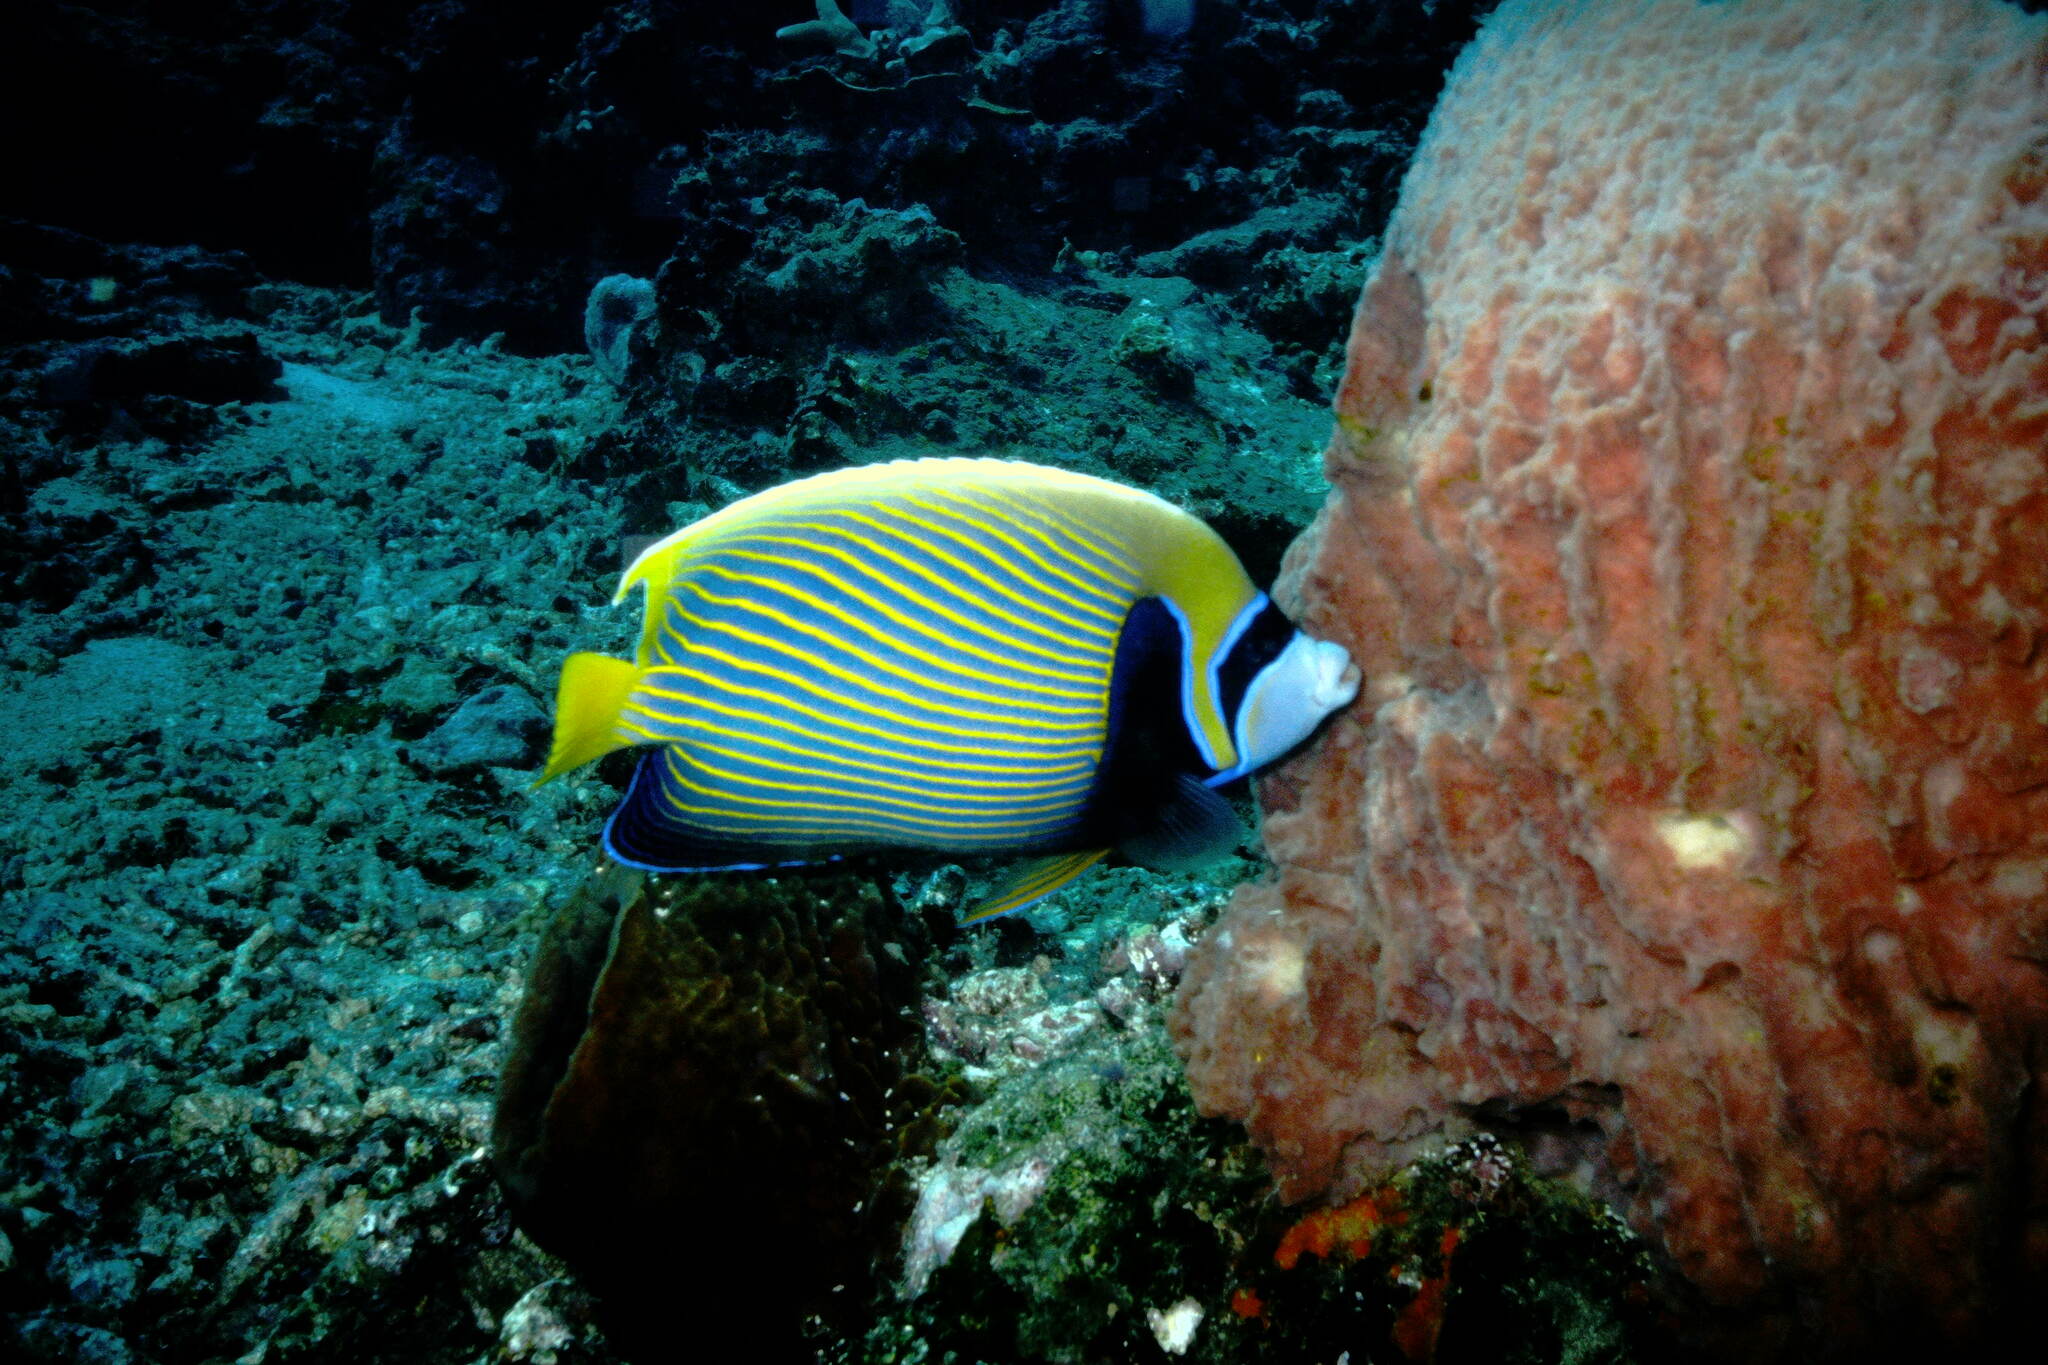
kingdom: Animalia
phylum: Chordata
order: Perciformes
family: Pomacanthidae
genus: Pomacanthus
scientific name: Pomacanthus imperator
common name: Emperor angelfish
